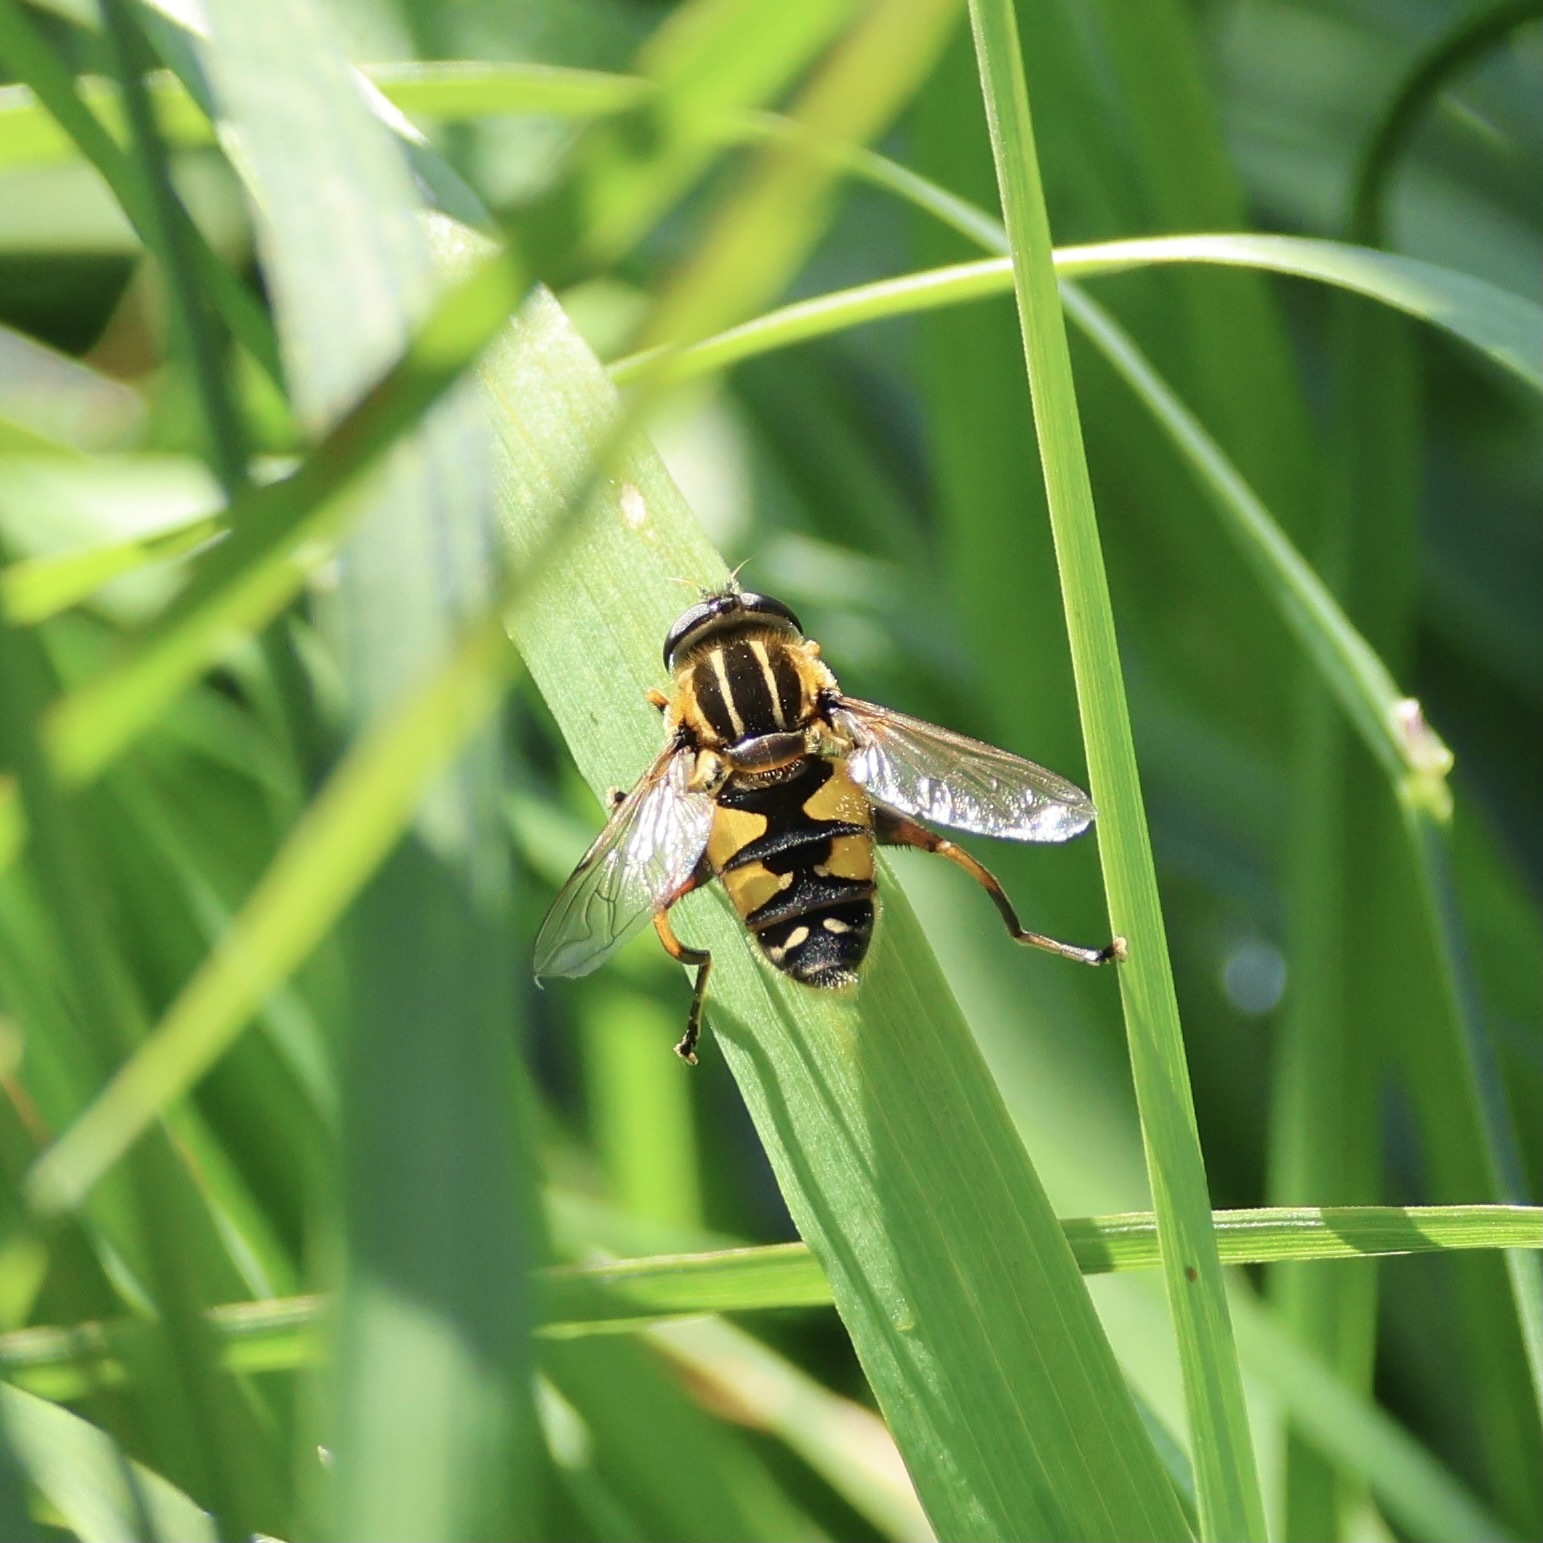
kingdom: Animalia
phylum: Arthropoda
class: Insecta
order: Diptera
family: Syrphidae
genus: Helophilus
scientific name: Helophilus pendulus
